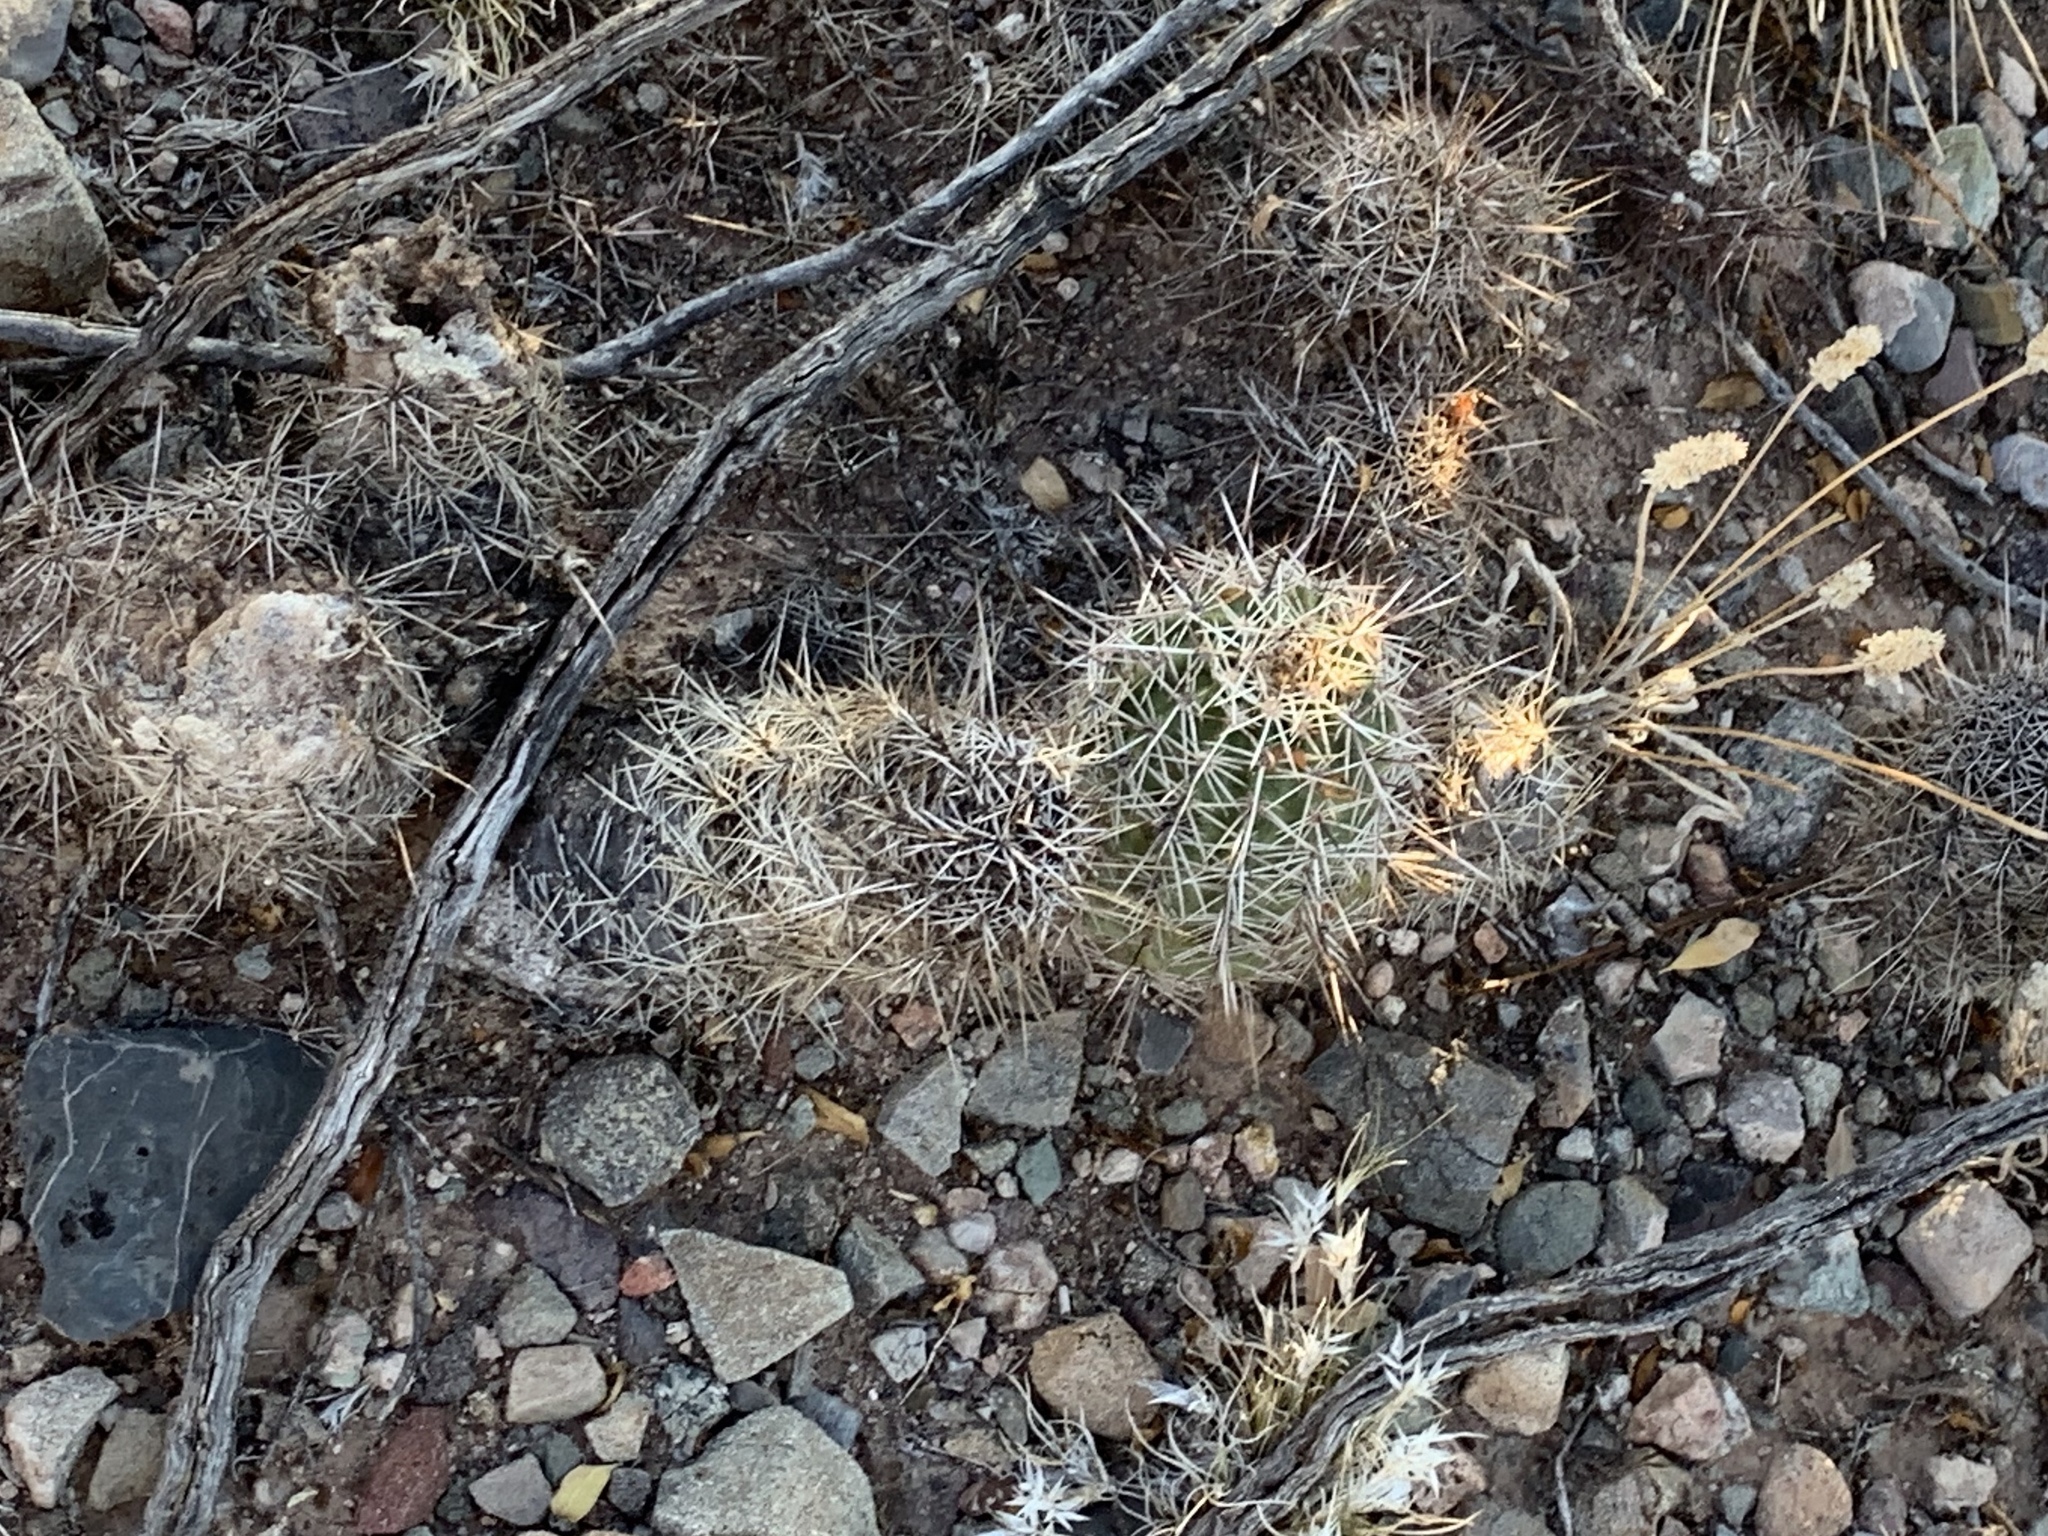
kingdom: Plantae
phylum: Tracheophyta
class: Magnoliopsida
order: Caryophyllales
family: Cactaceae
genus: Echinocereus
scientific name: Echinocereus fasciculatus
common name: Bundle hedgehog
